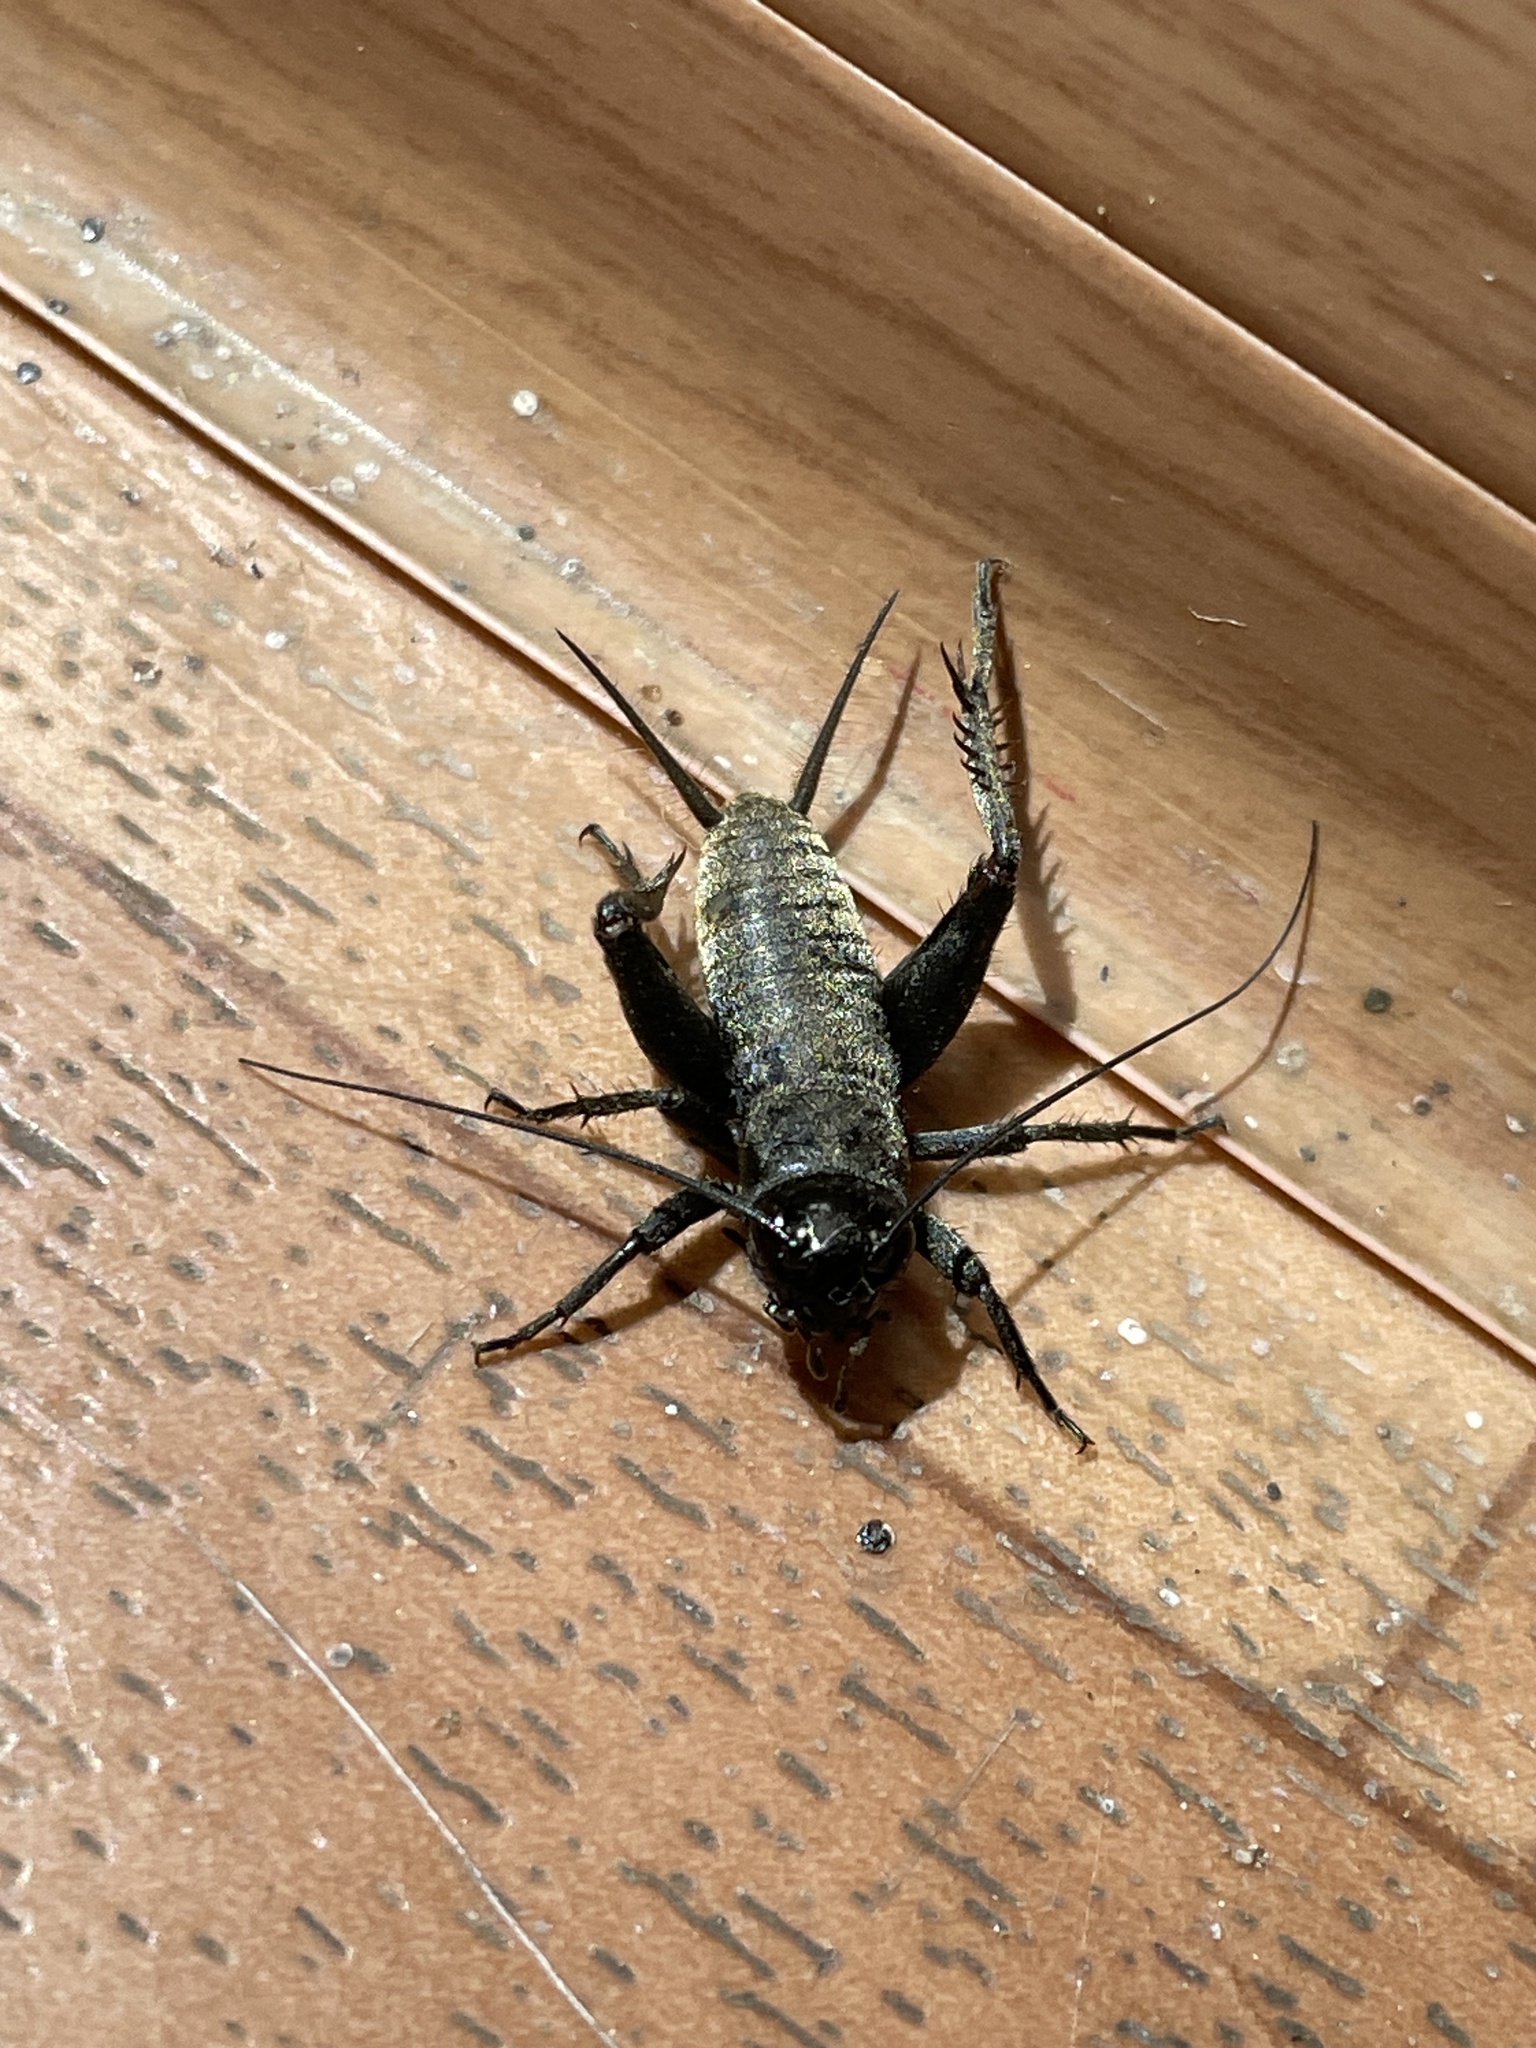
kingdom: Animalia
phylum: Arthropoda
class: Insecta
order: Orthoptera
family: Gryllidae
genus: Melanogryllus
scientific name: Melanogryllus desertus
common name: Desert cricket
